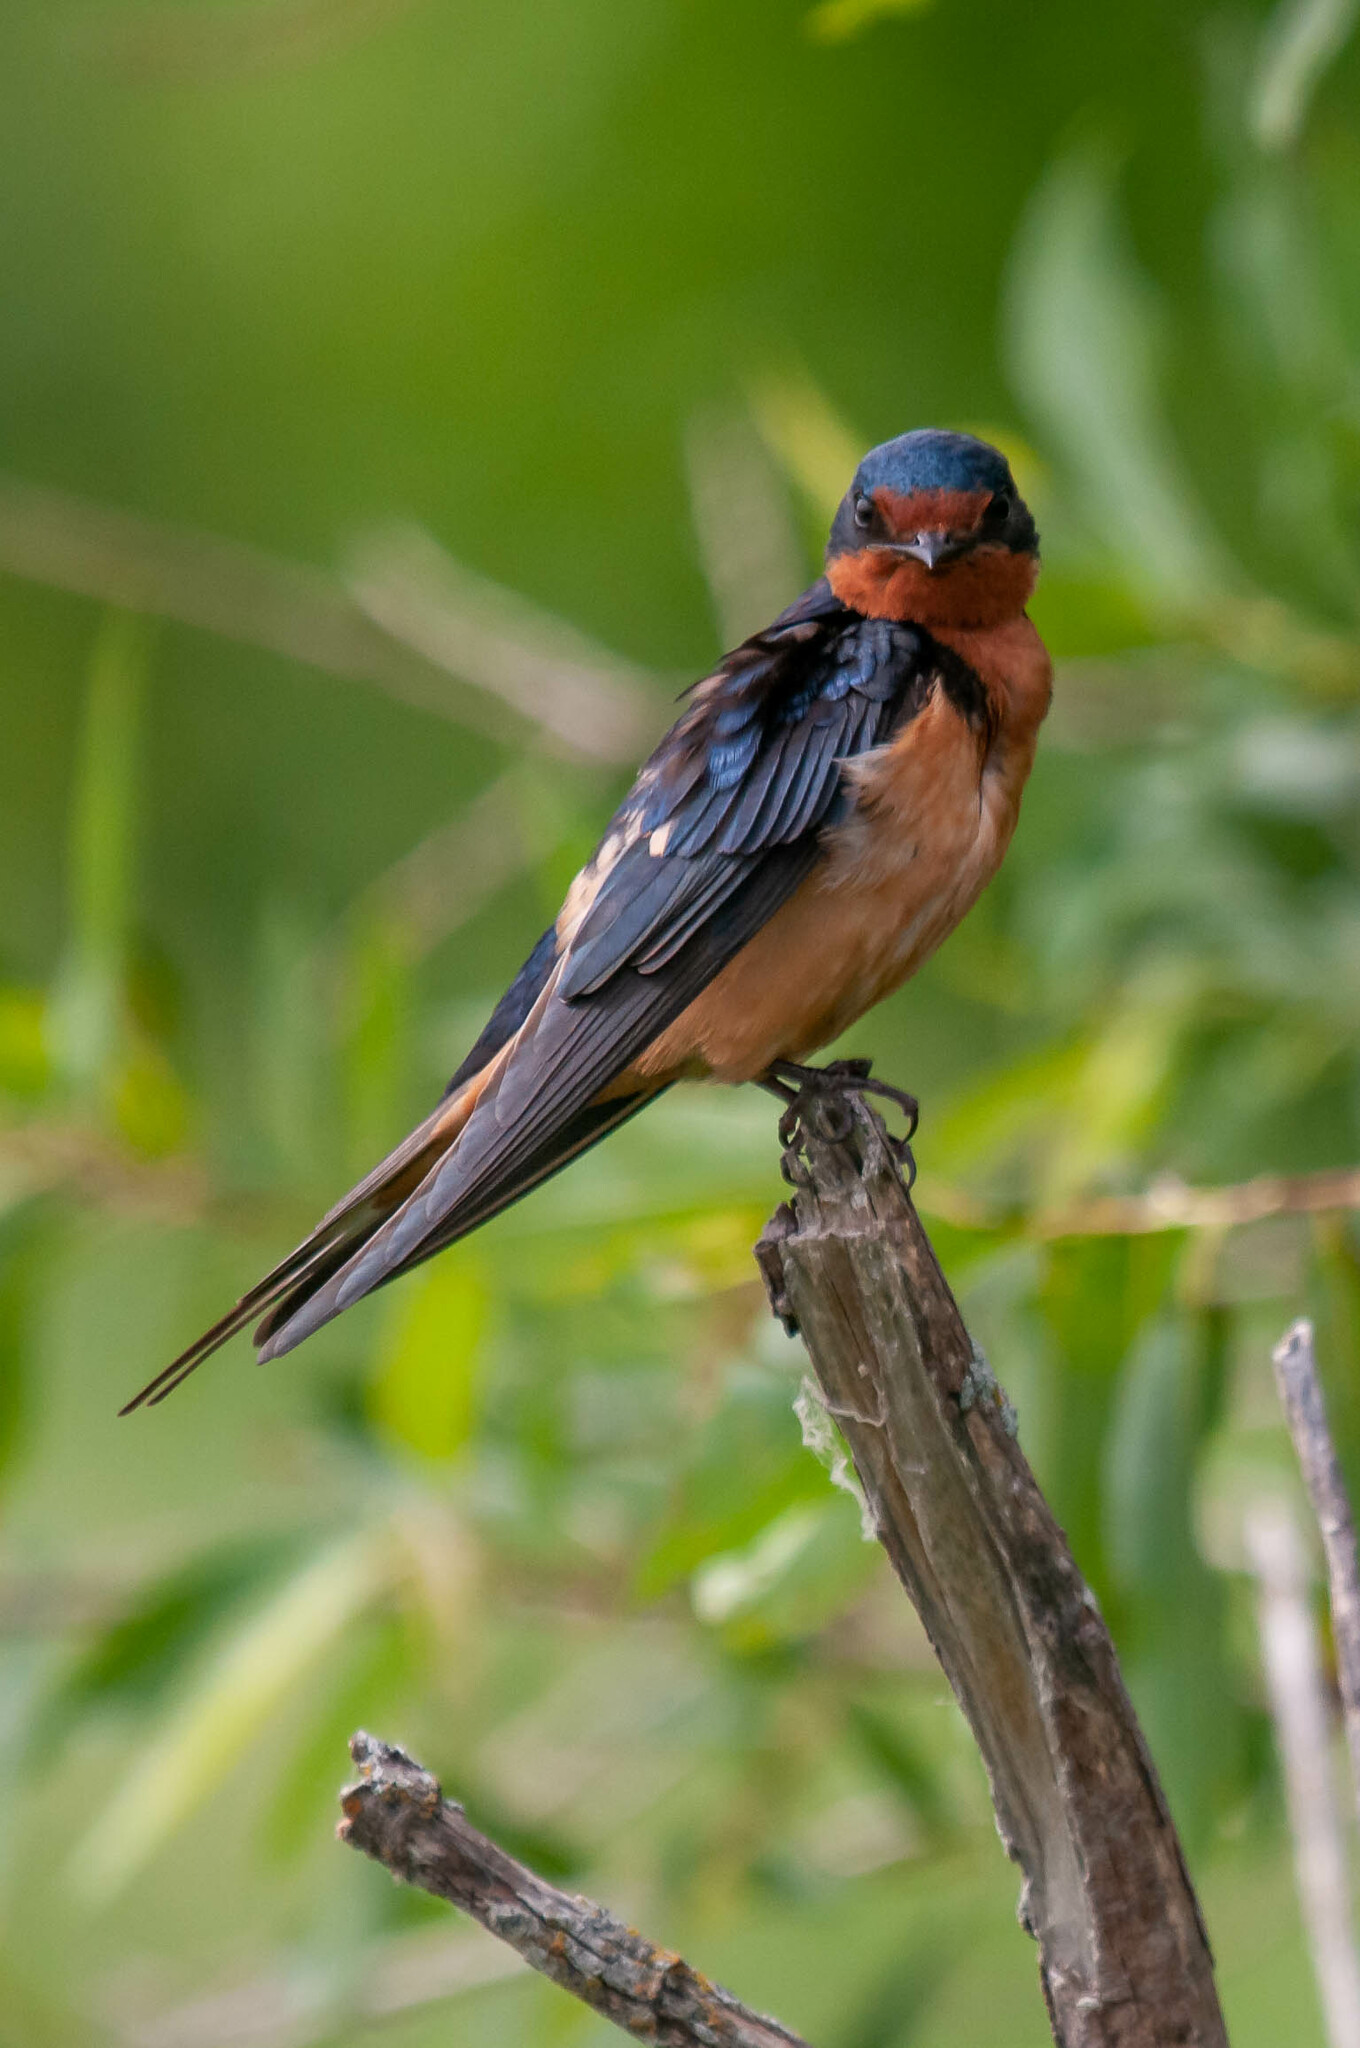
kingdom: Animalia
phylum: Chordata
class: Aves
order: Passeriformes
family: Hirundinidae
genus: Hirundo
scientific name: Hirundo rustica
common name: Barn swallow
